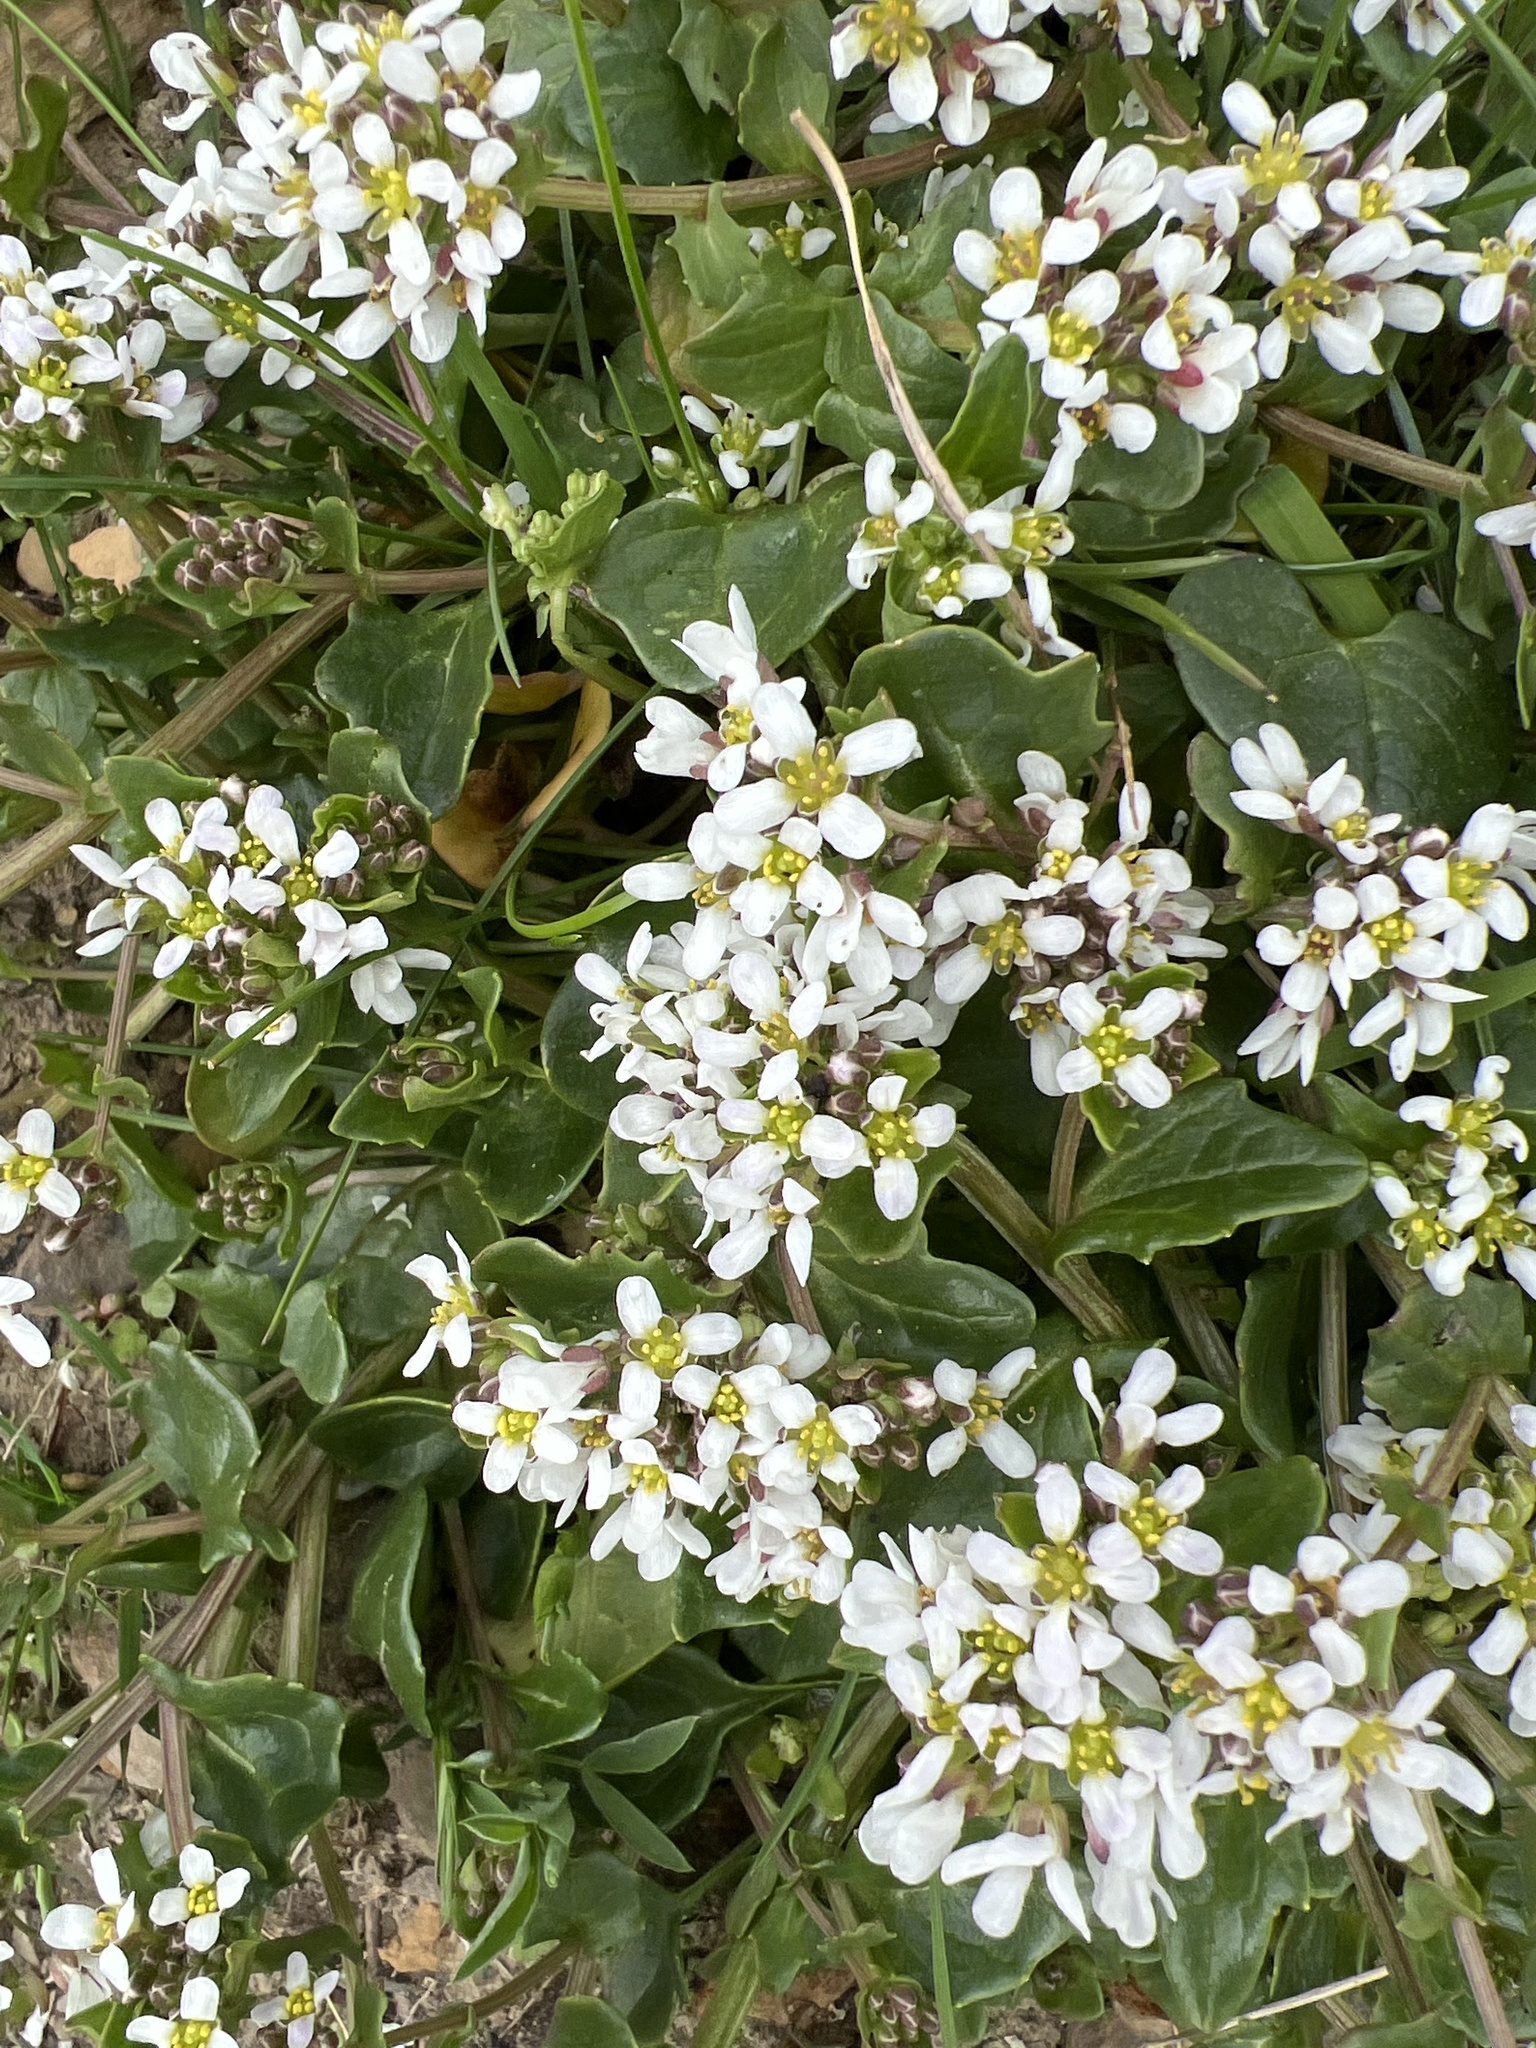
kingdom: Plantae
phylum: Tracheophyta
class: Magnoliopsida
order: Brassicales
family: Brassicaceae
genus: Cochlearia
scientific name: Cochlearia officinalis
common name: Scurvy-grass
